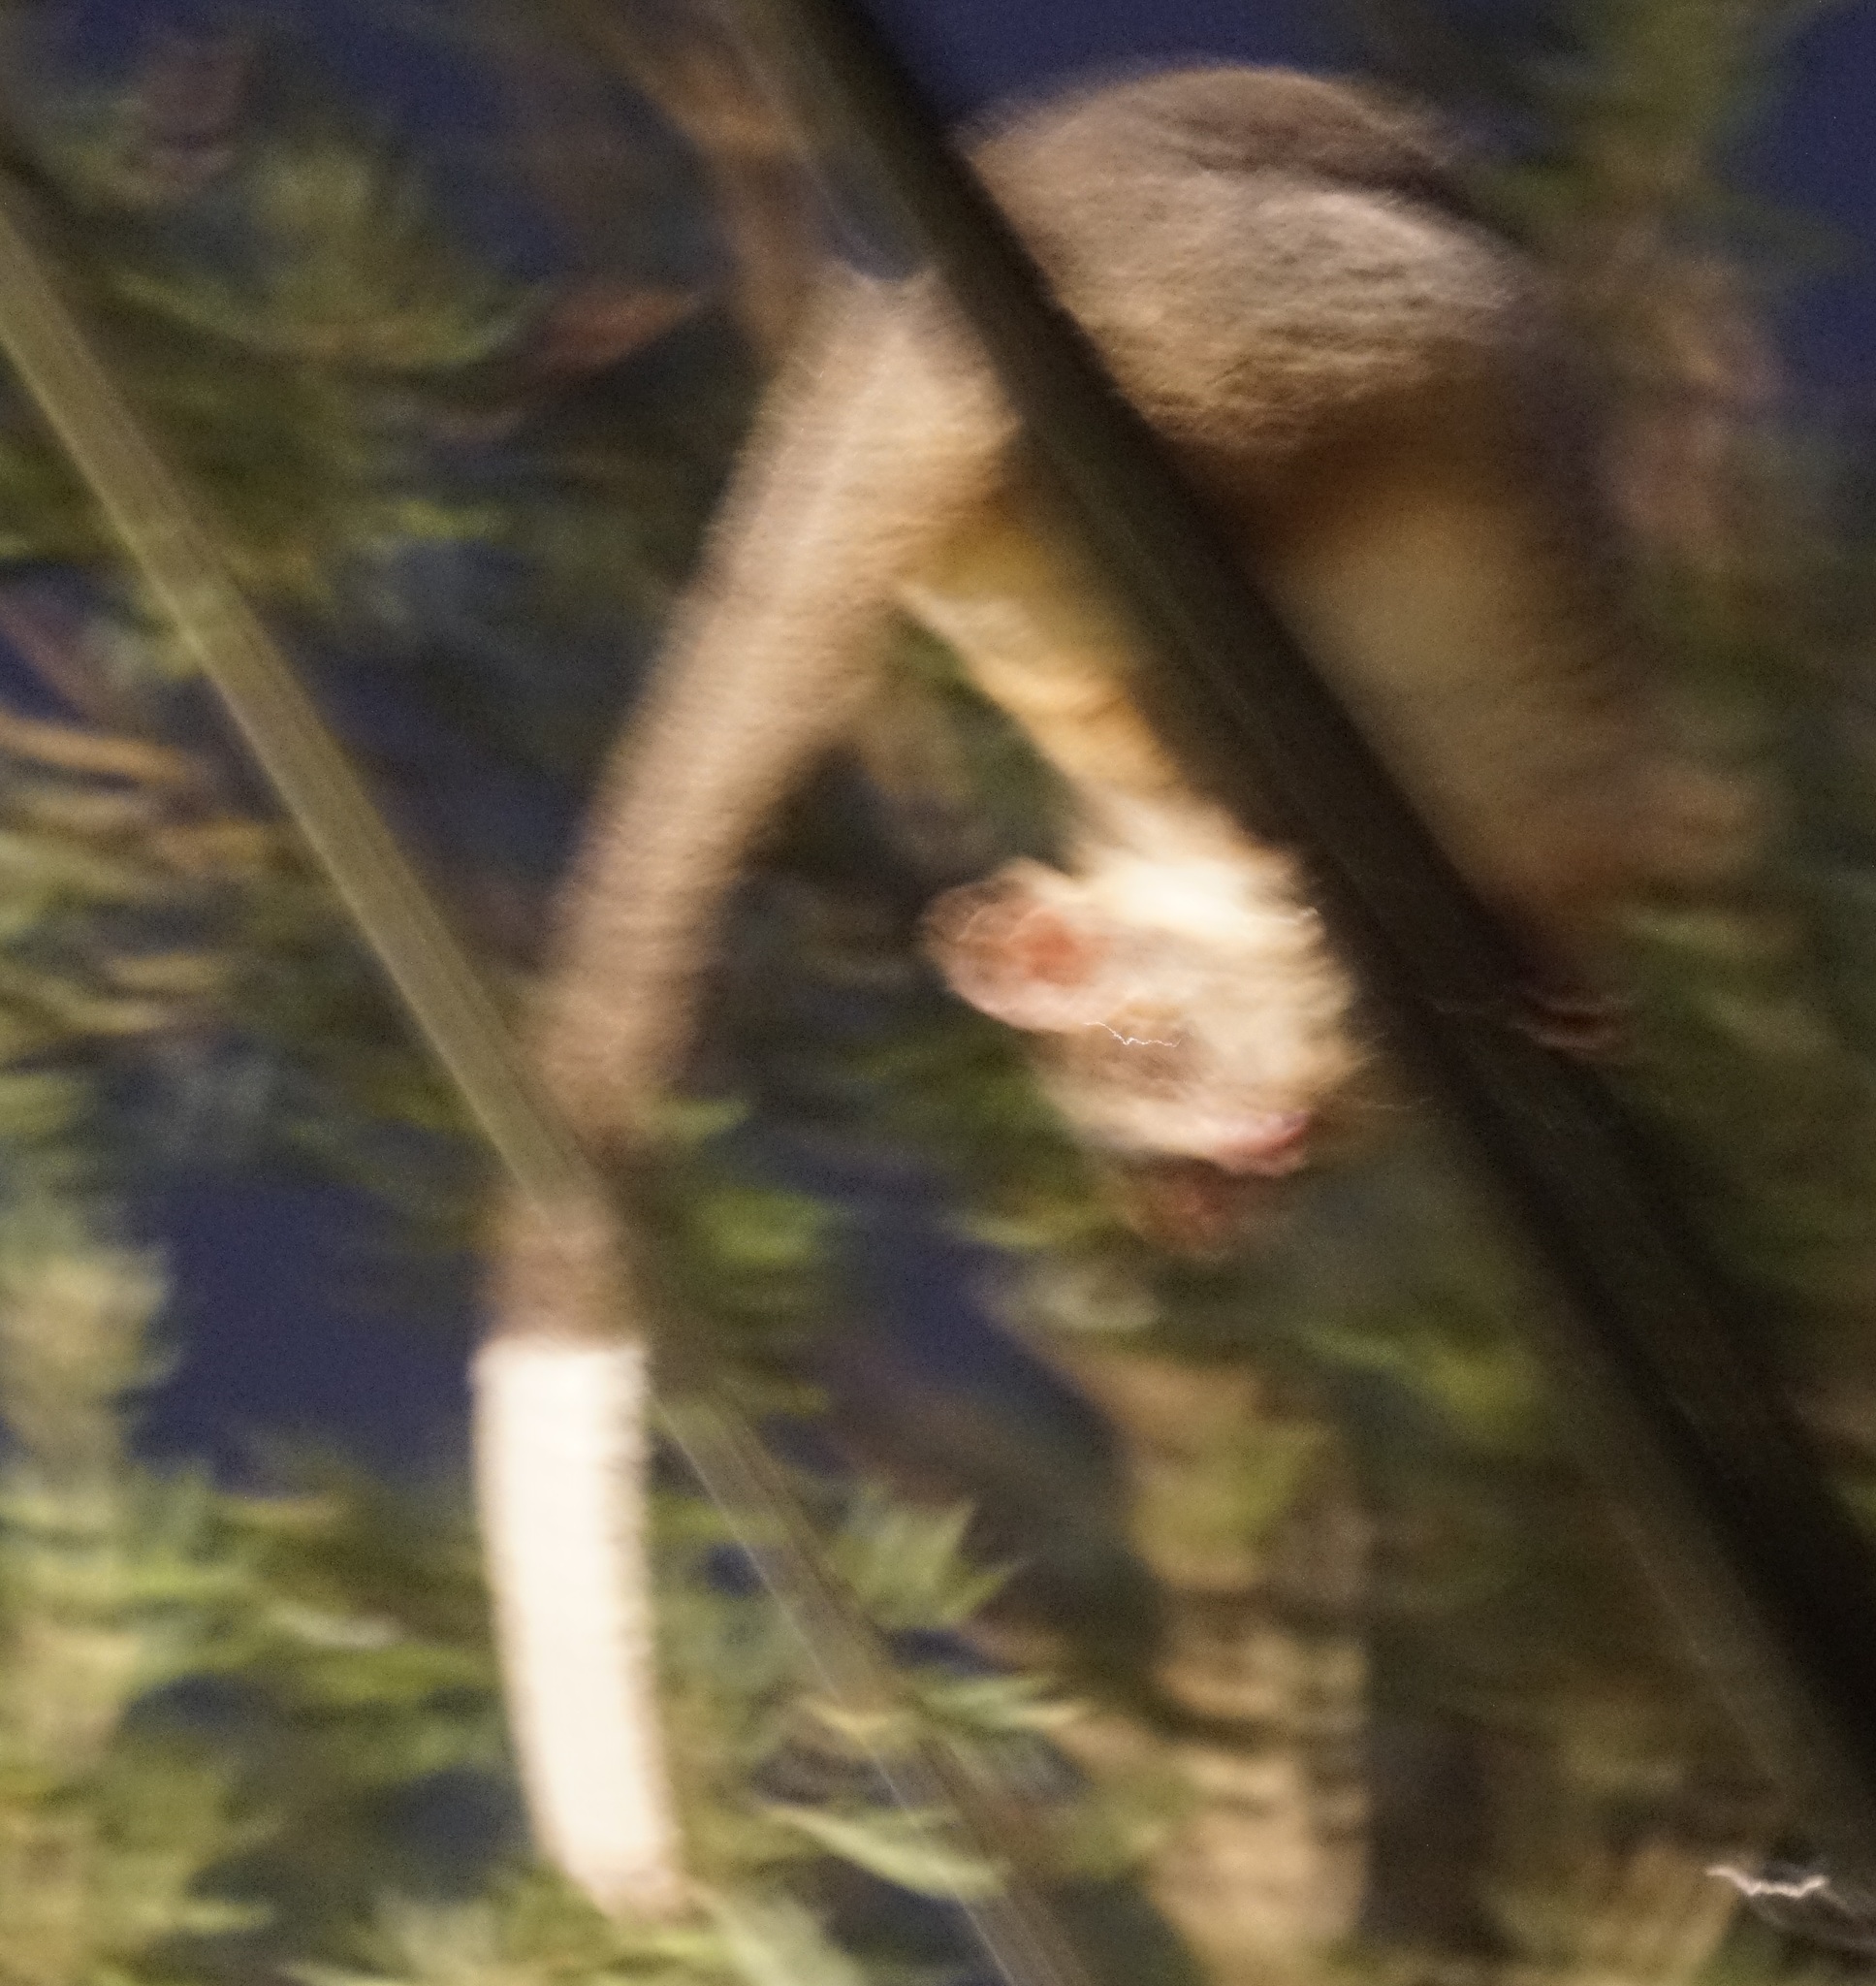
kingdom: Animalia
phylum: Chordata
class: Mammalia
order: Diprotodontia
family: Pseudocheiridae
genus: Pseudocheirus
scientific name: Pseudocheirus peregrinus
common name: Common ringtail possum
